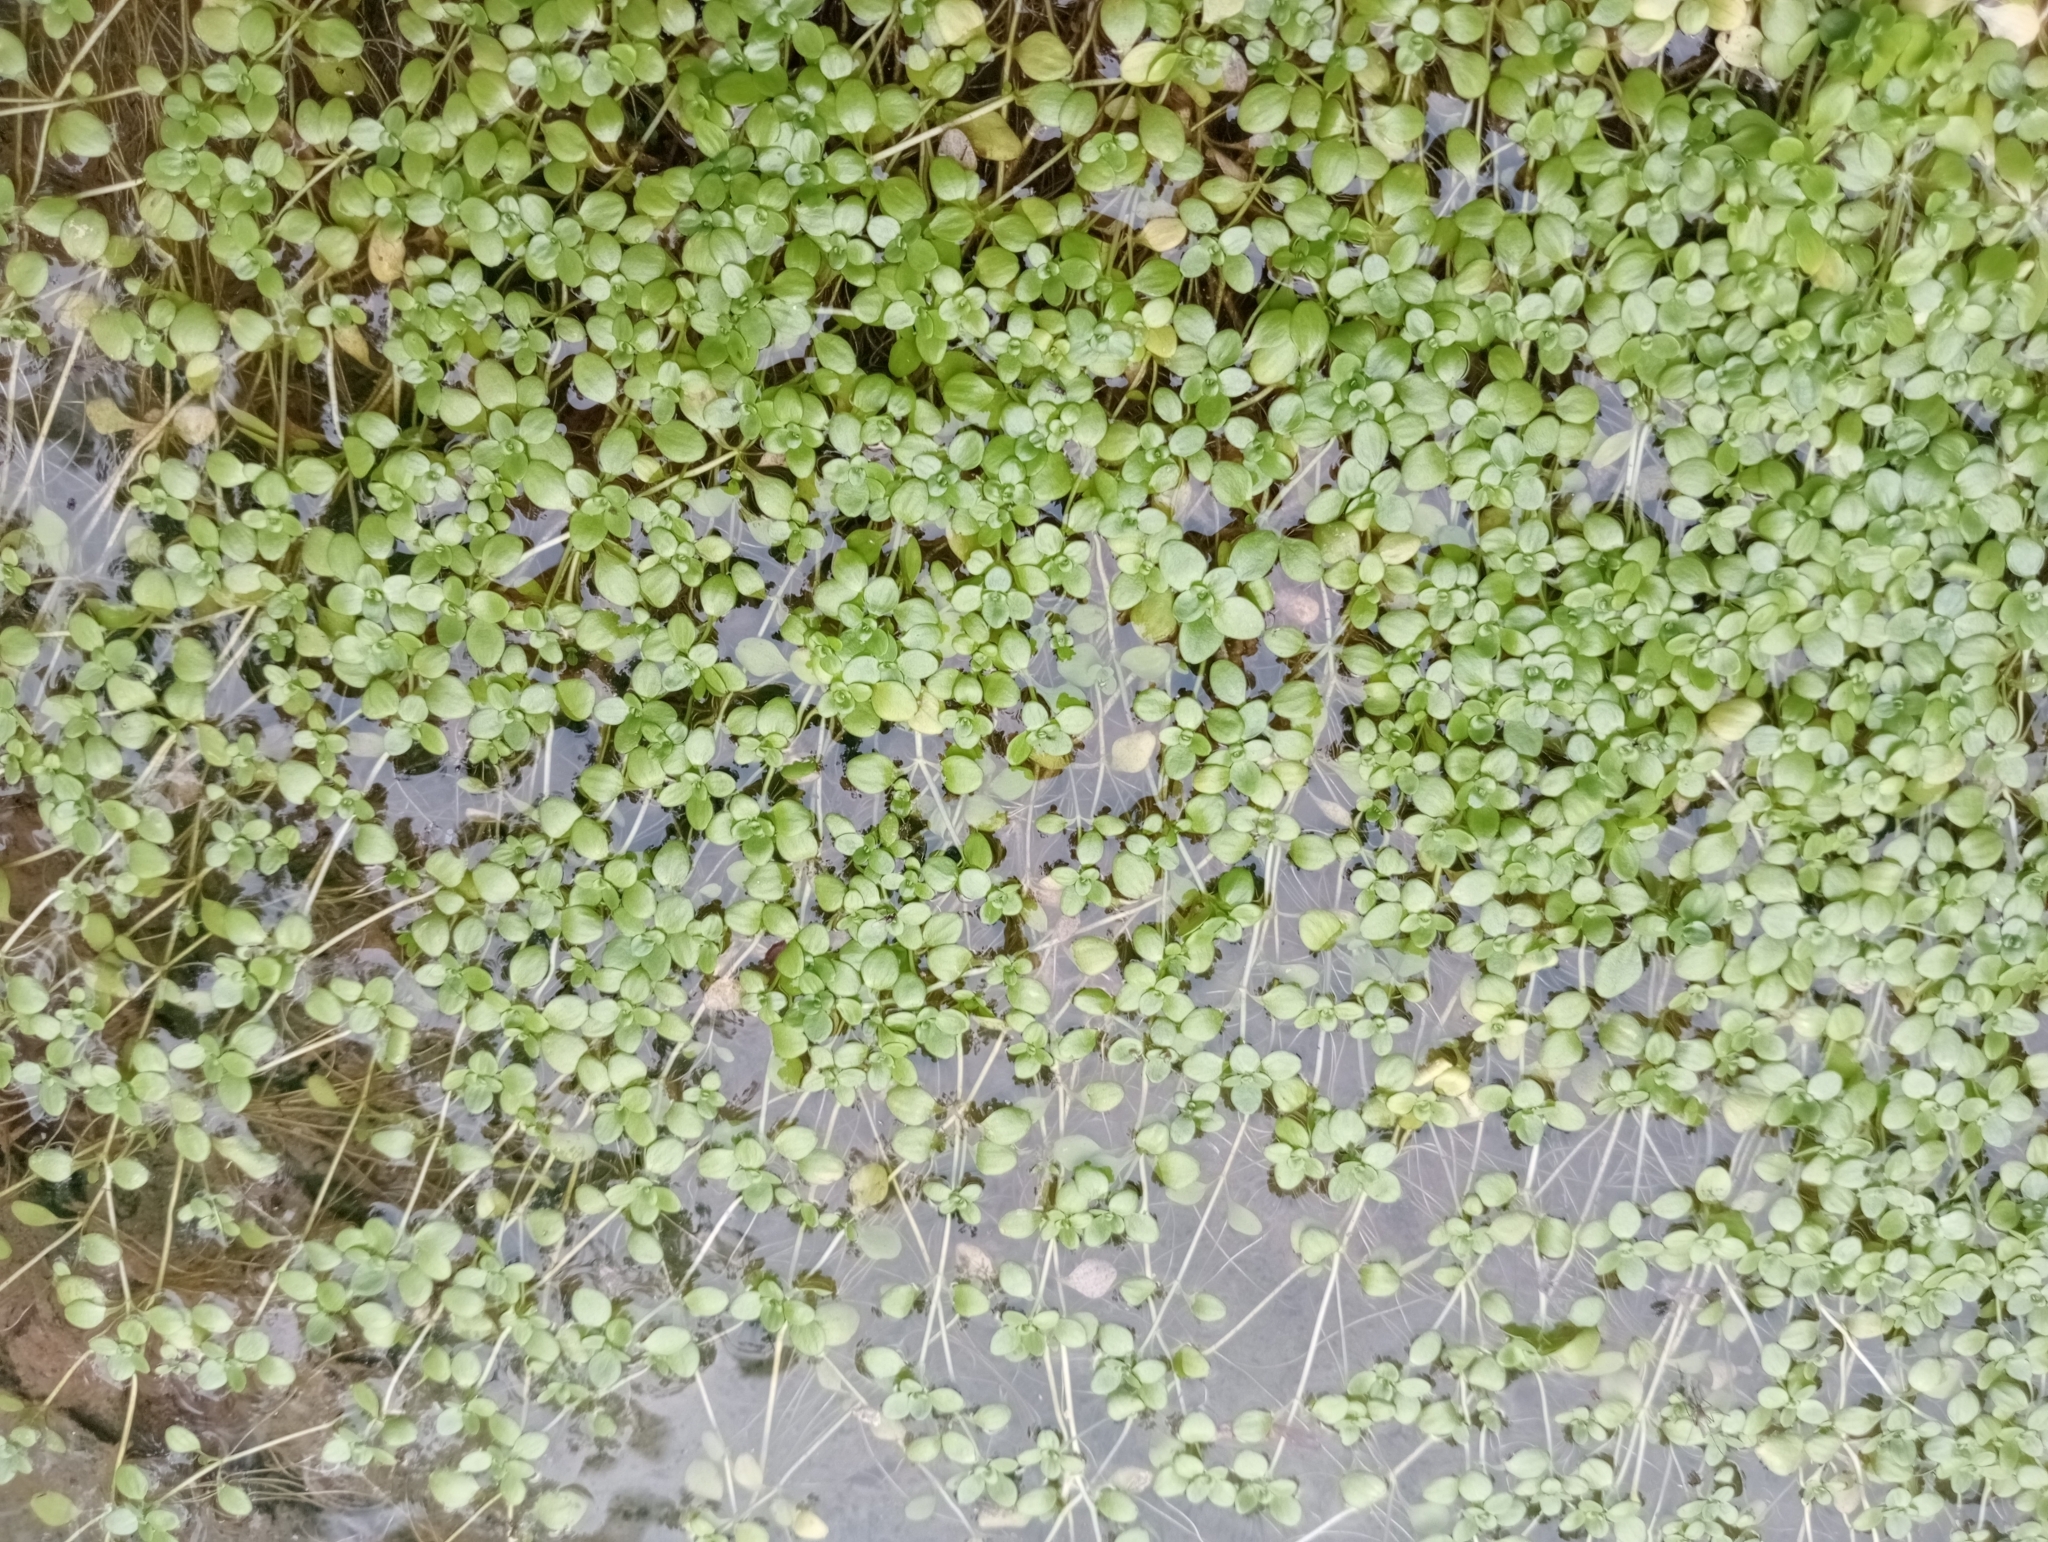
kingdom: Plantae
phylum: Tracheophyta
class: Magnoliopsida
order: Lamiales
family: Plantaginaceae
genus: Callitriche
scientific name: Callitriche stagnalis
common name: Common water-starwort
